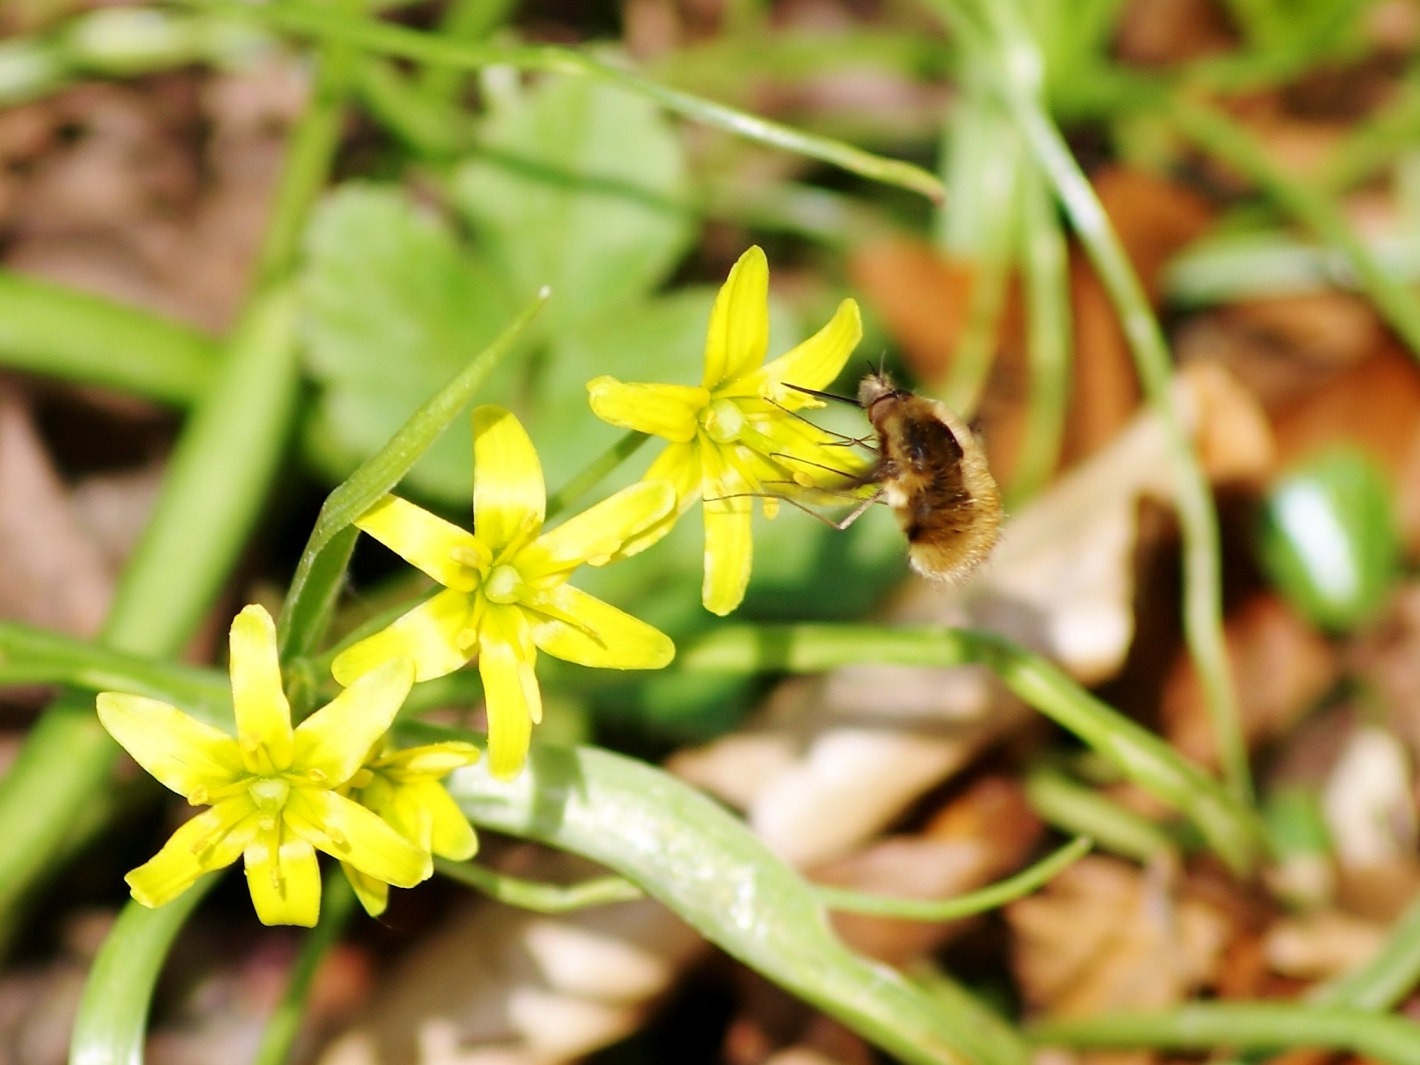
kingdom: Animalia
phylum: Arthropoda
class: Insecta
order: Diptera
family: Bombyliidae
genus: Bombylius
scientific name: Bombylius major
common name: Bee fly
